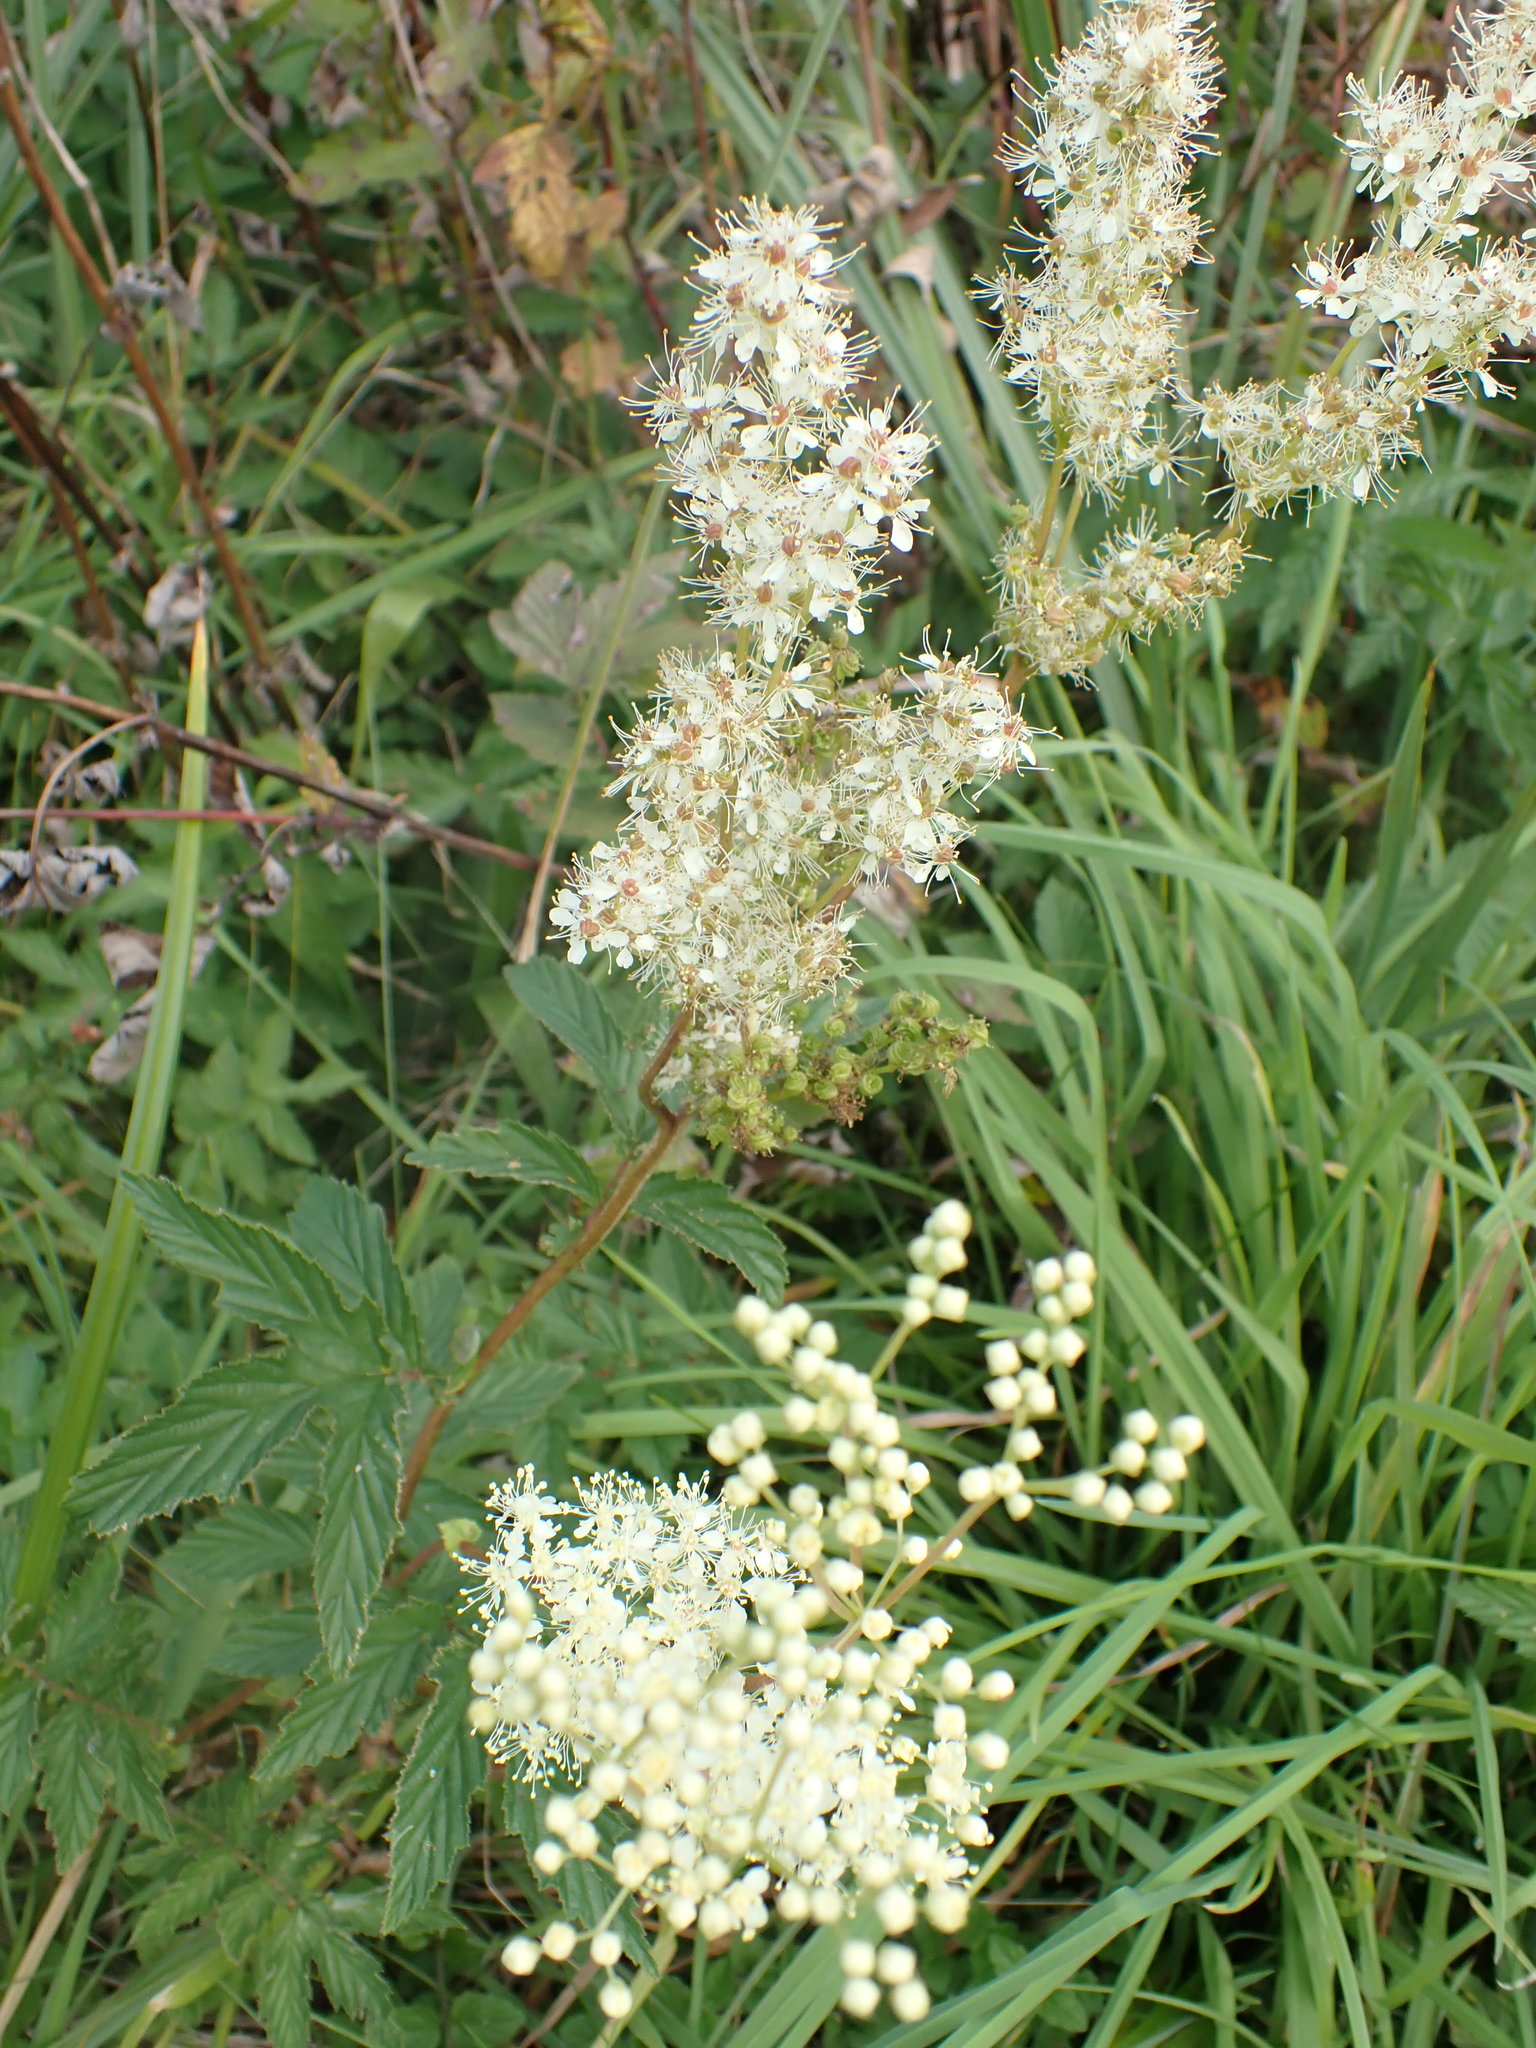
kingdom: Plantae
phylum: Tracheophyta
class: Magnoliopsida
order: Rosales
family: Rosaceae
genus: Filipendula
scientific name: Filipendula ulmaria
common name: Meadowsweet
